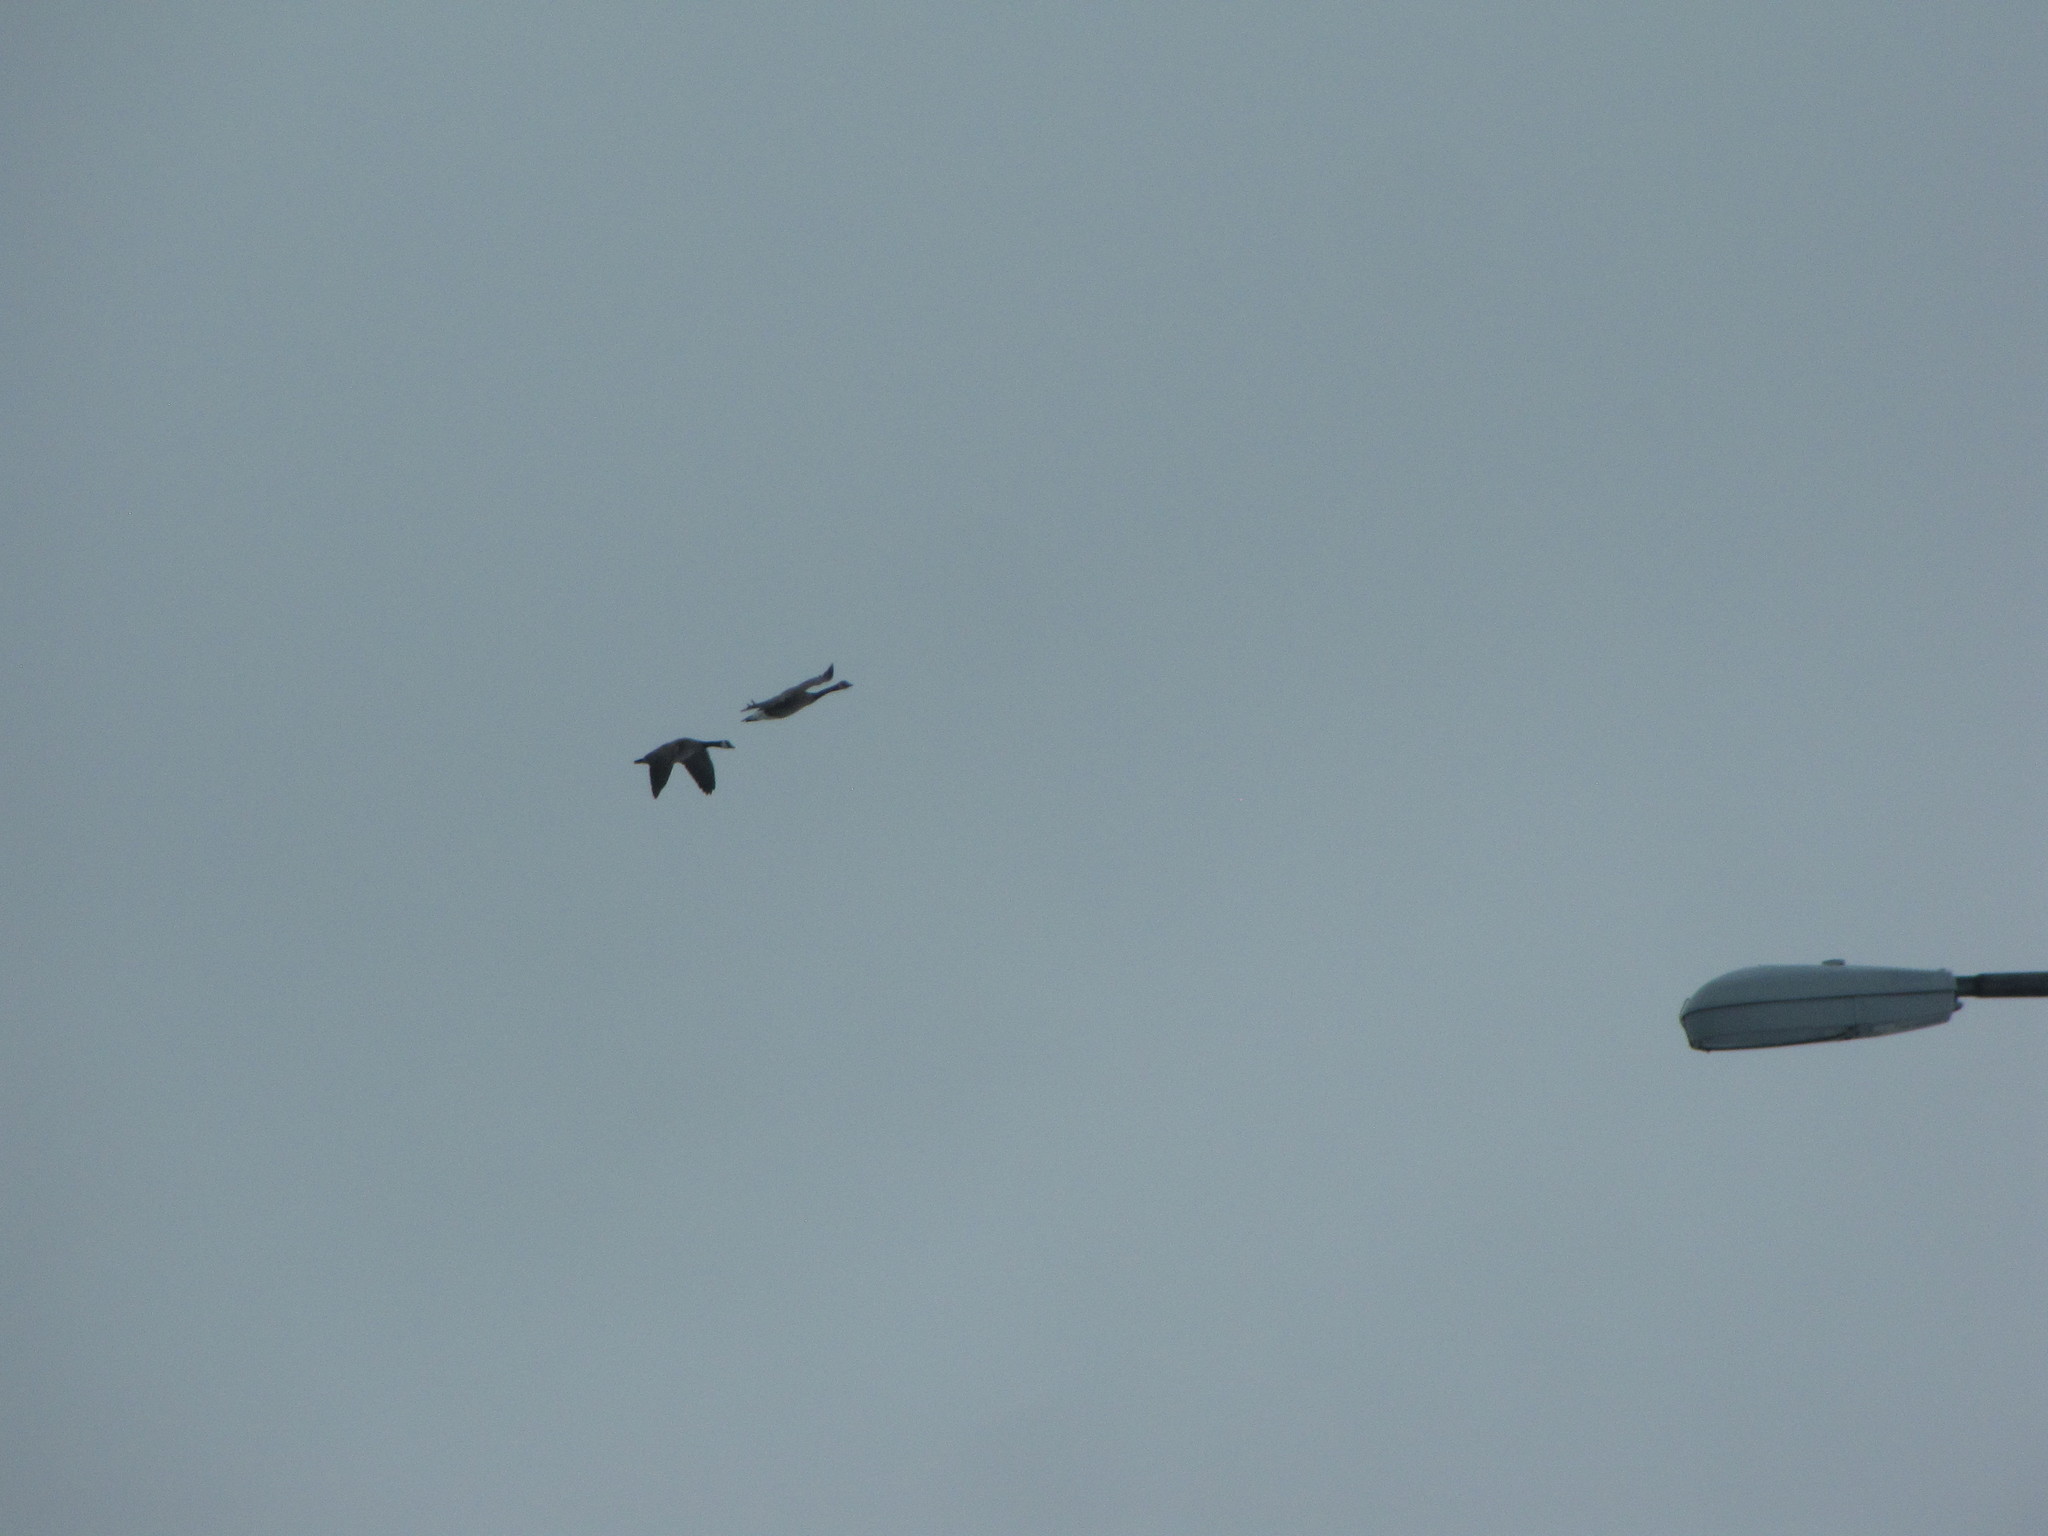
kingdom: Animalia
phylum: Chordata
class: Aves
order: Anseriformes
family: Anatidae
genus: Branta
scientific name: Branta canadensis
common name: Canada goose
